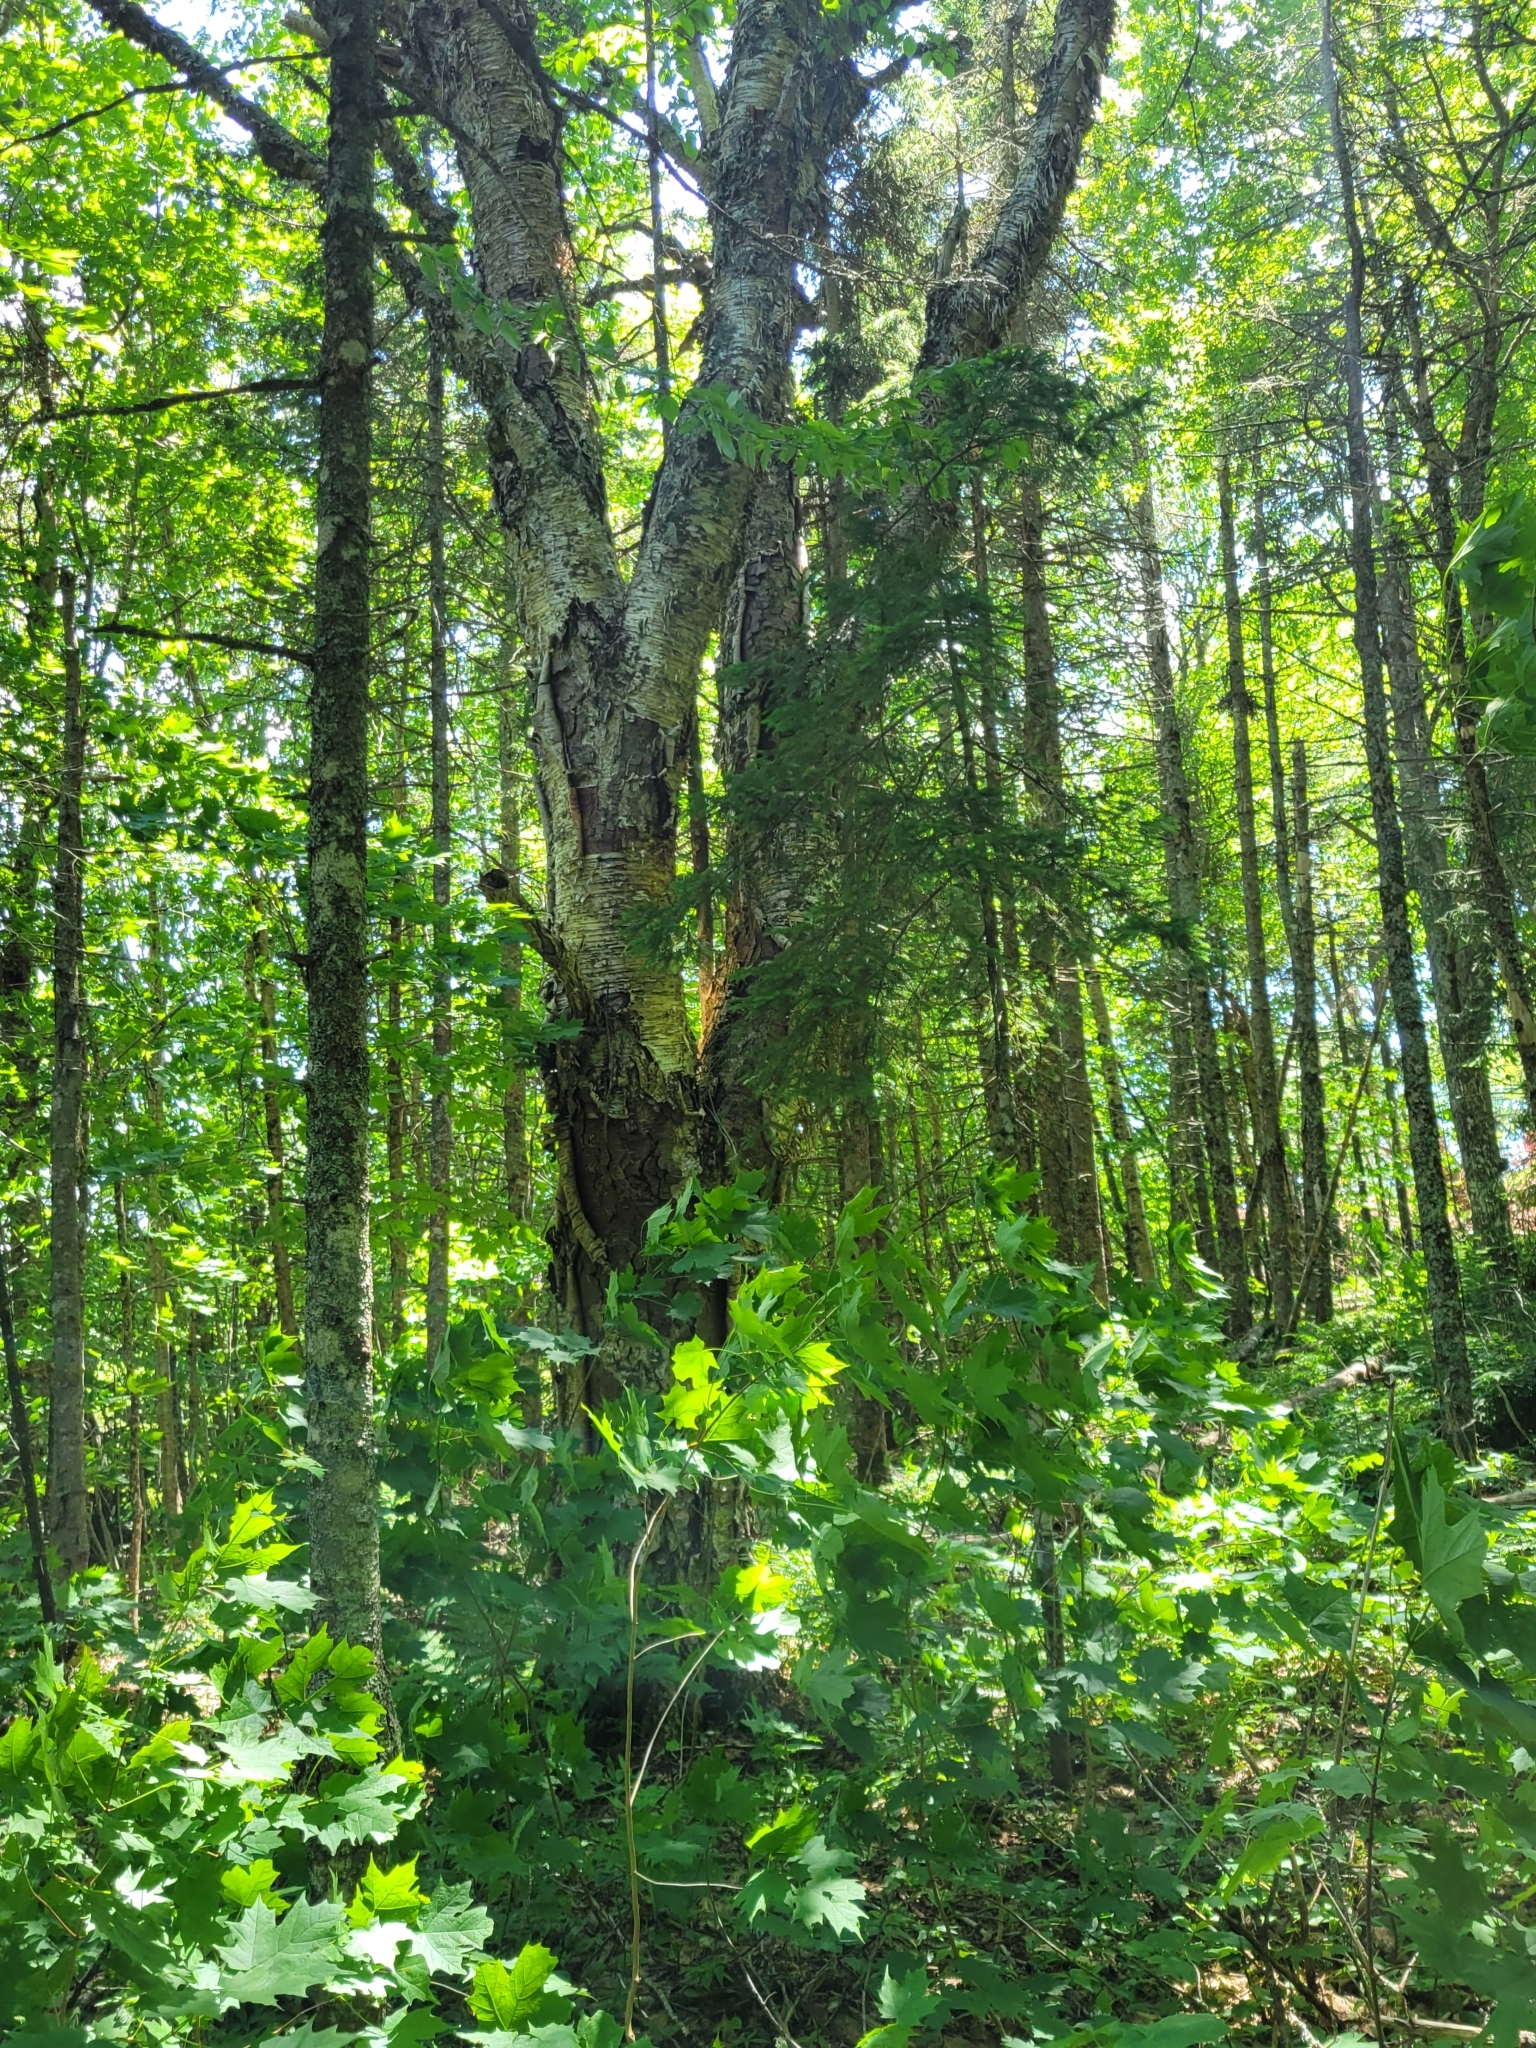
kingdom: Plantae
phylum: Tracheophyta
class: Magnoliopsida
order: Fagales
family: Betulaceae
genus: Betula
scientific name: Betula alleghaniensis
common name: Yellow birch
